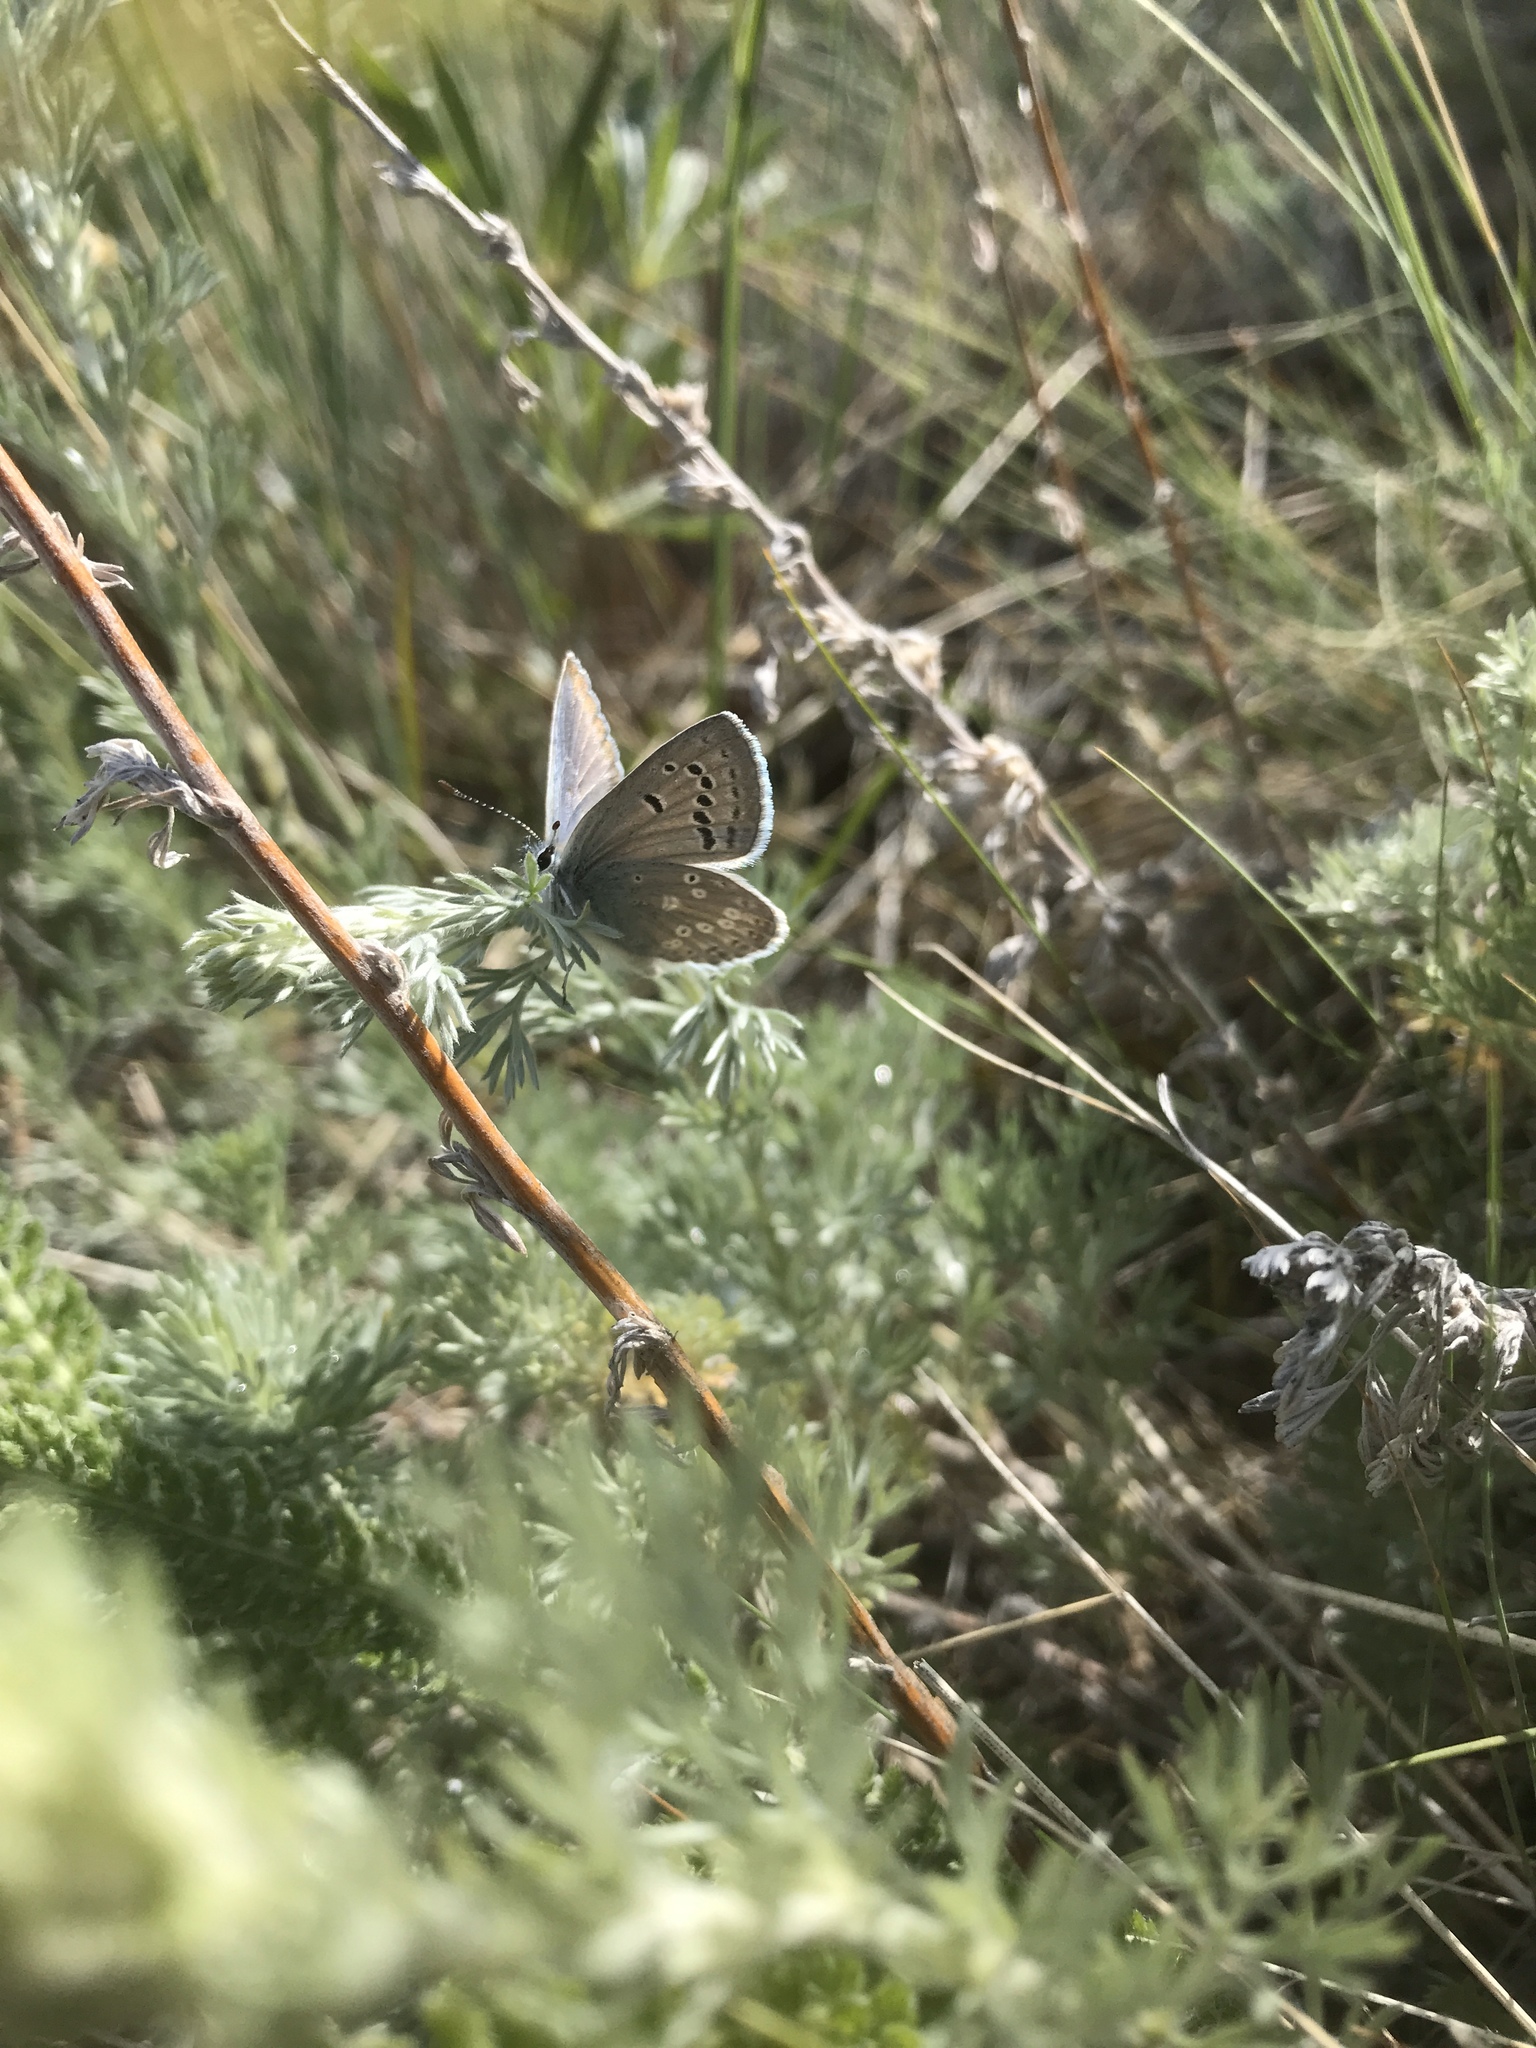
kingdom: Animalia
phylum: Arthropoda
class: Insecta
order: Lepidoptera
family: Lycaenidae
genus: Icaricia
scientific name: Icaricia icarioides
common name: Boisduval's blue
